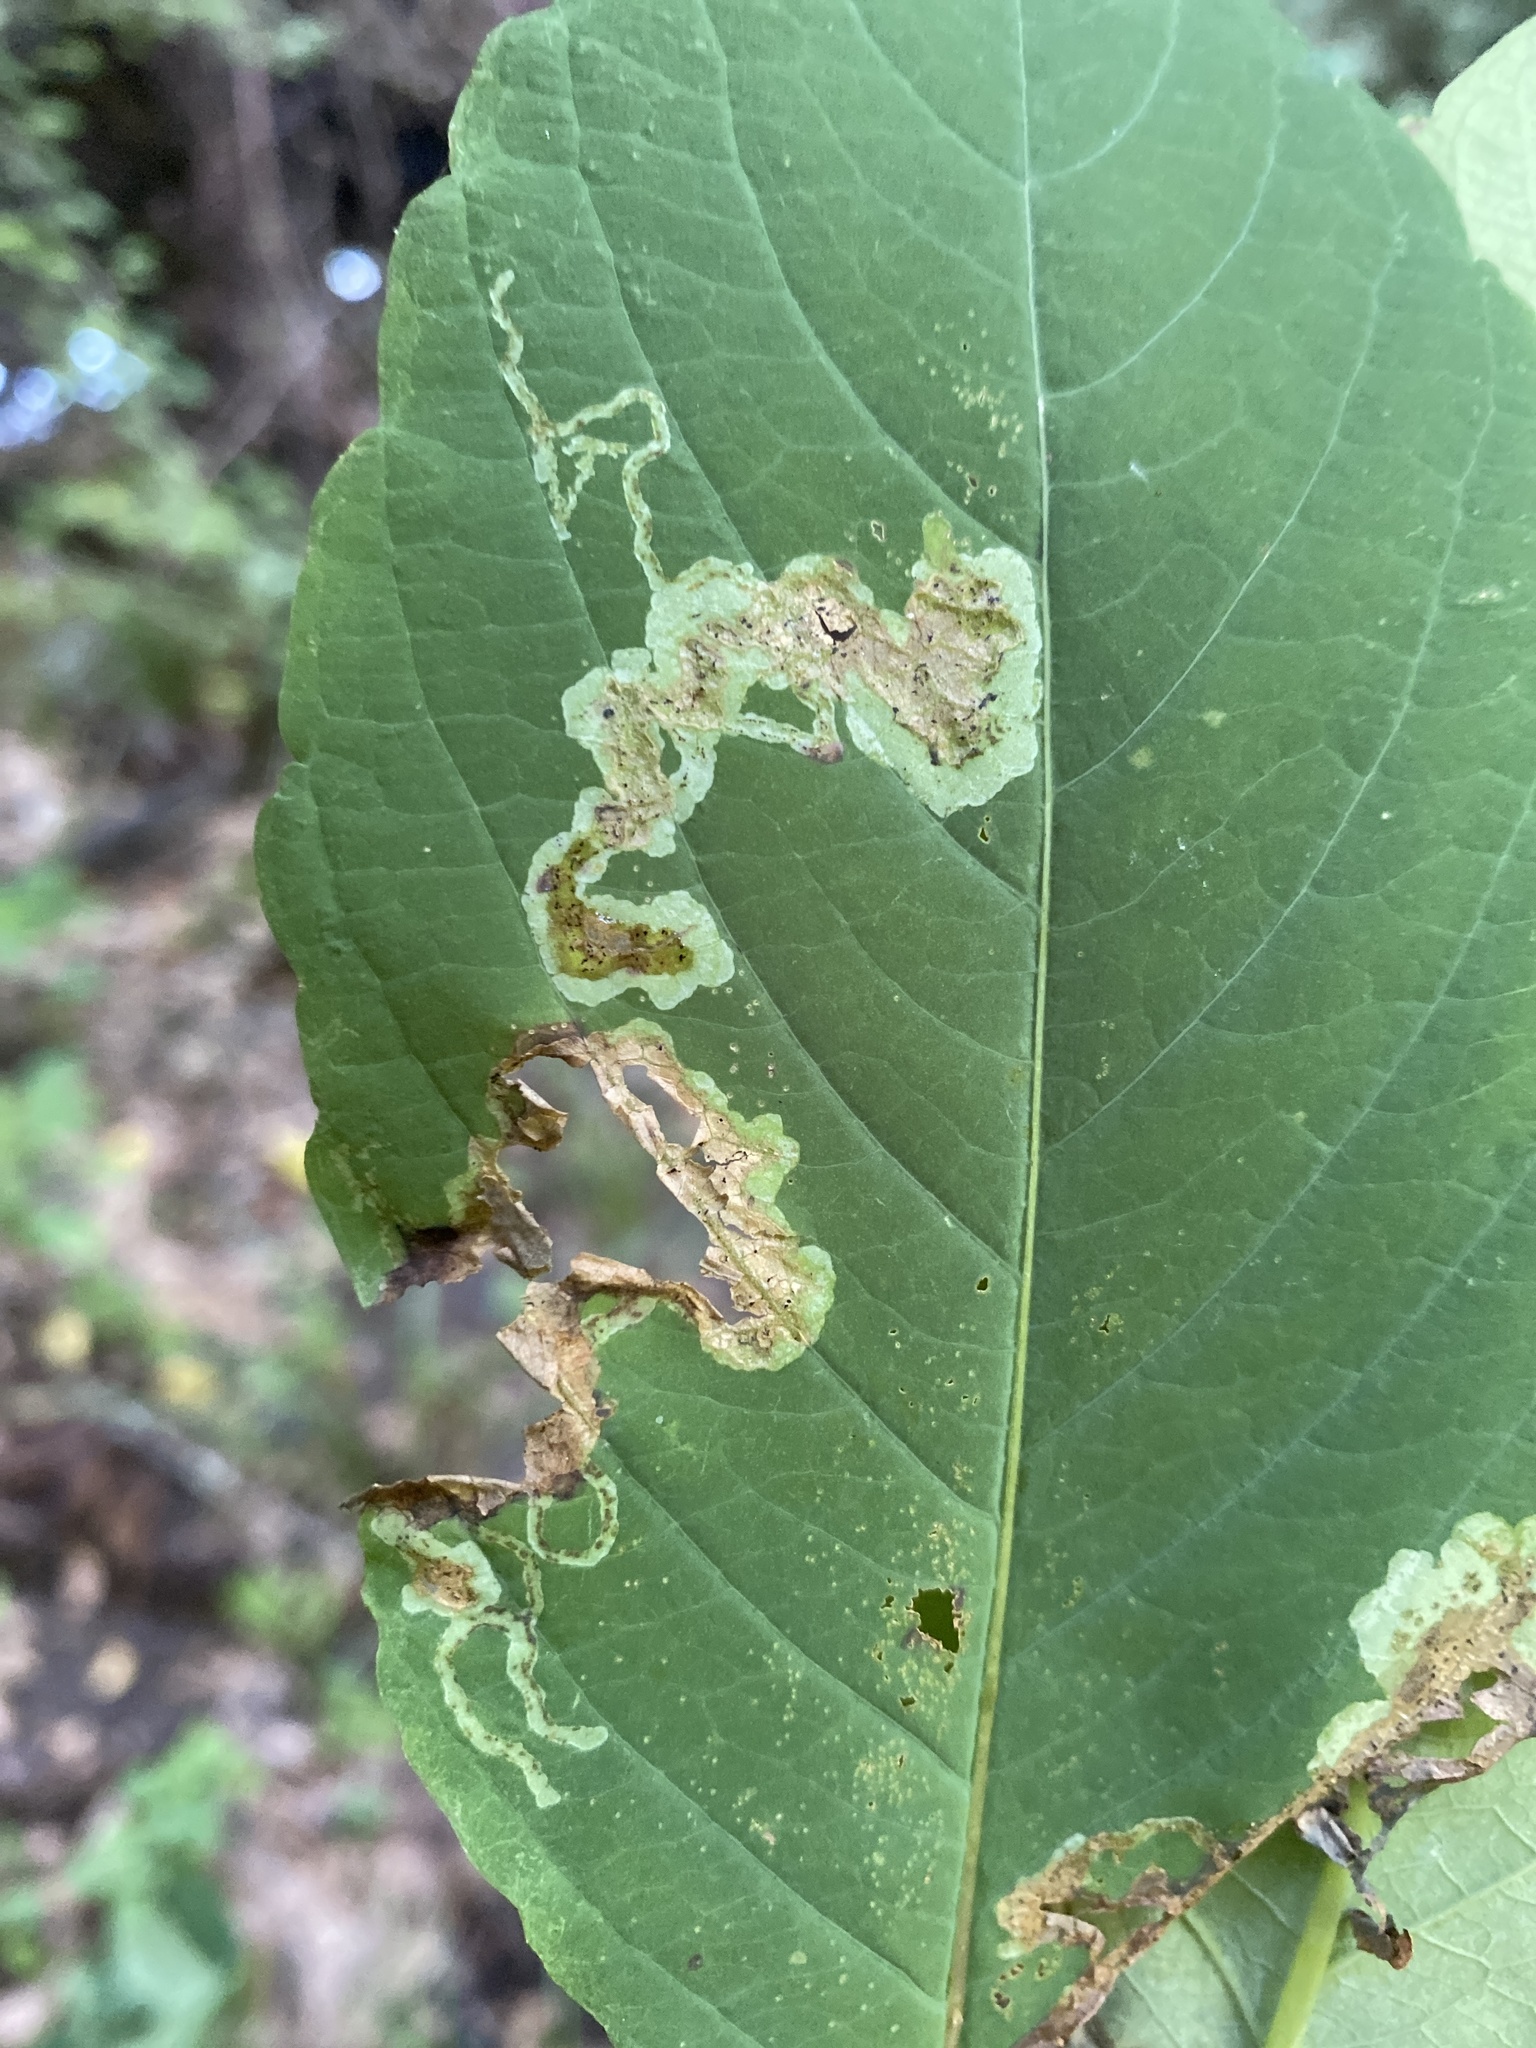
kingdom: Animalia
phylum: Arthropoda
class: Insecta
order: Diptera
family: Agromyzidae
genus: Phytoliriomyza
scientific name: Phytoliriomyza melampyga
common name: Jewelweed leaf-miner fly
